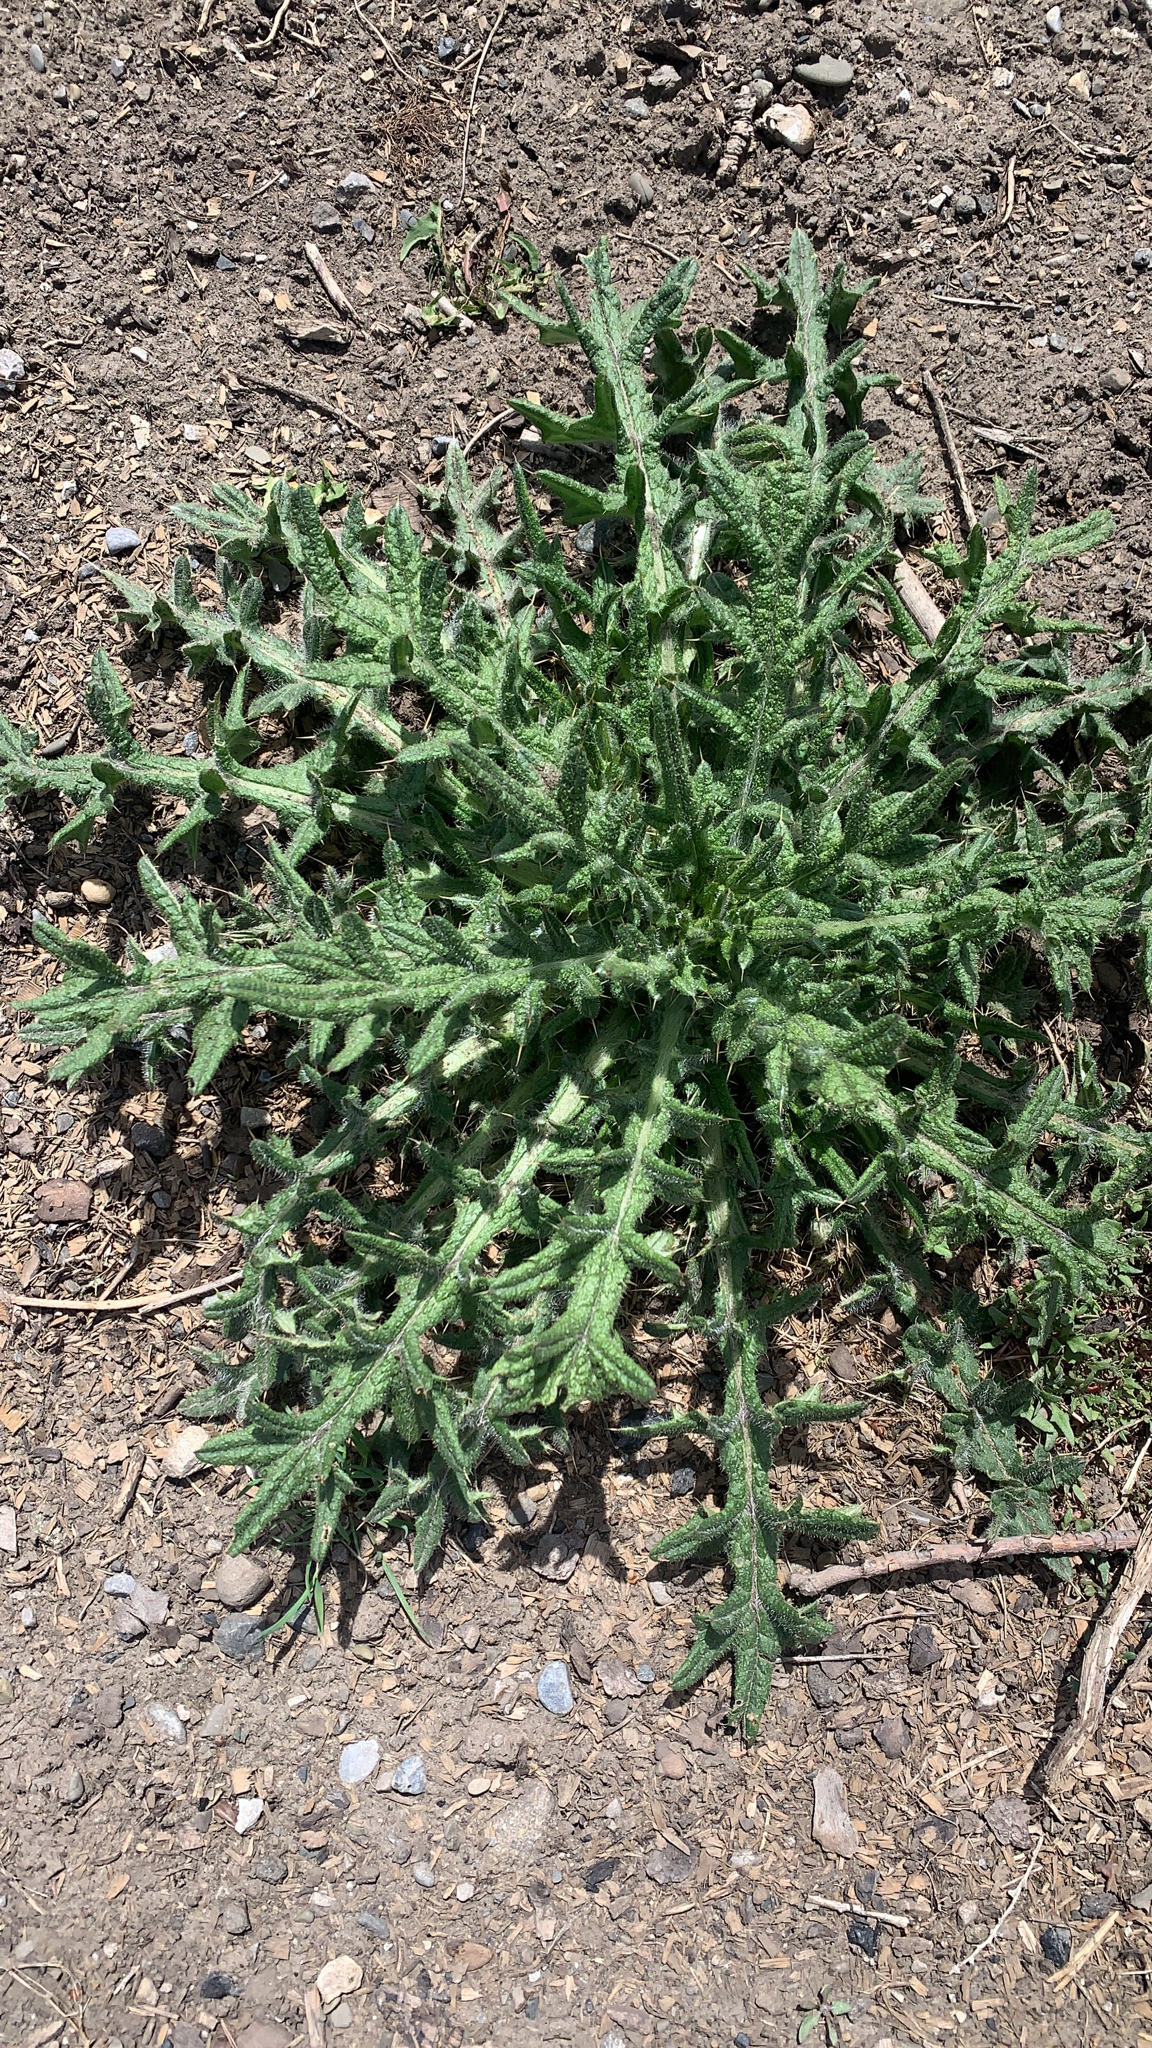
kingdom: Plantae
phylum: Tracheophyta
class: Magnoliopsida
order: Asterales
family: Asteraceae
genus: Cirsium
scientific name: Cirsium vulgare
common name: Bull thistle
